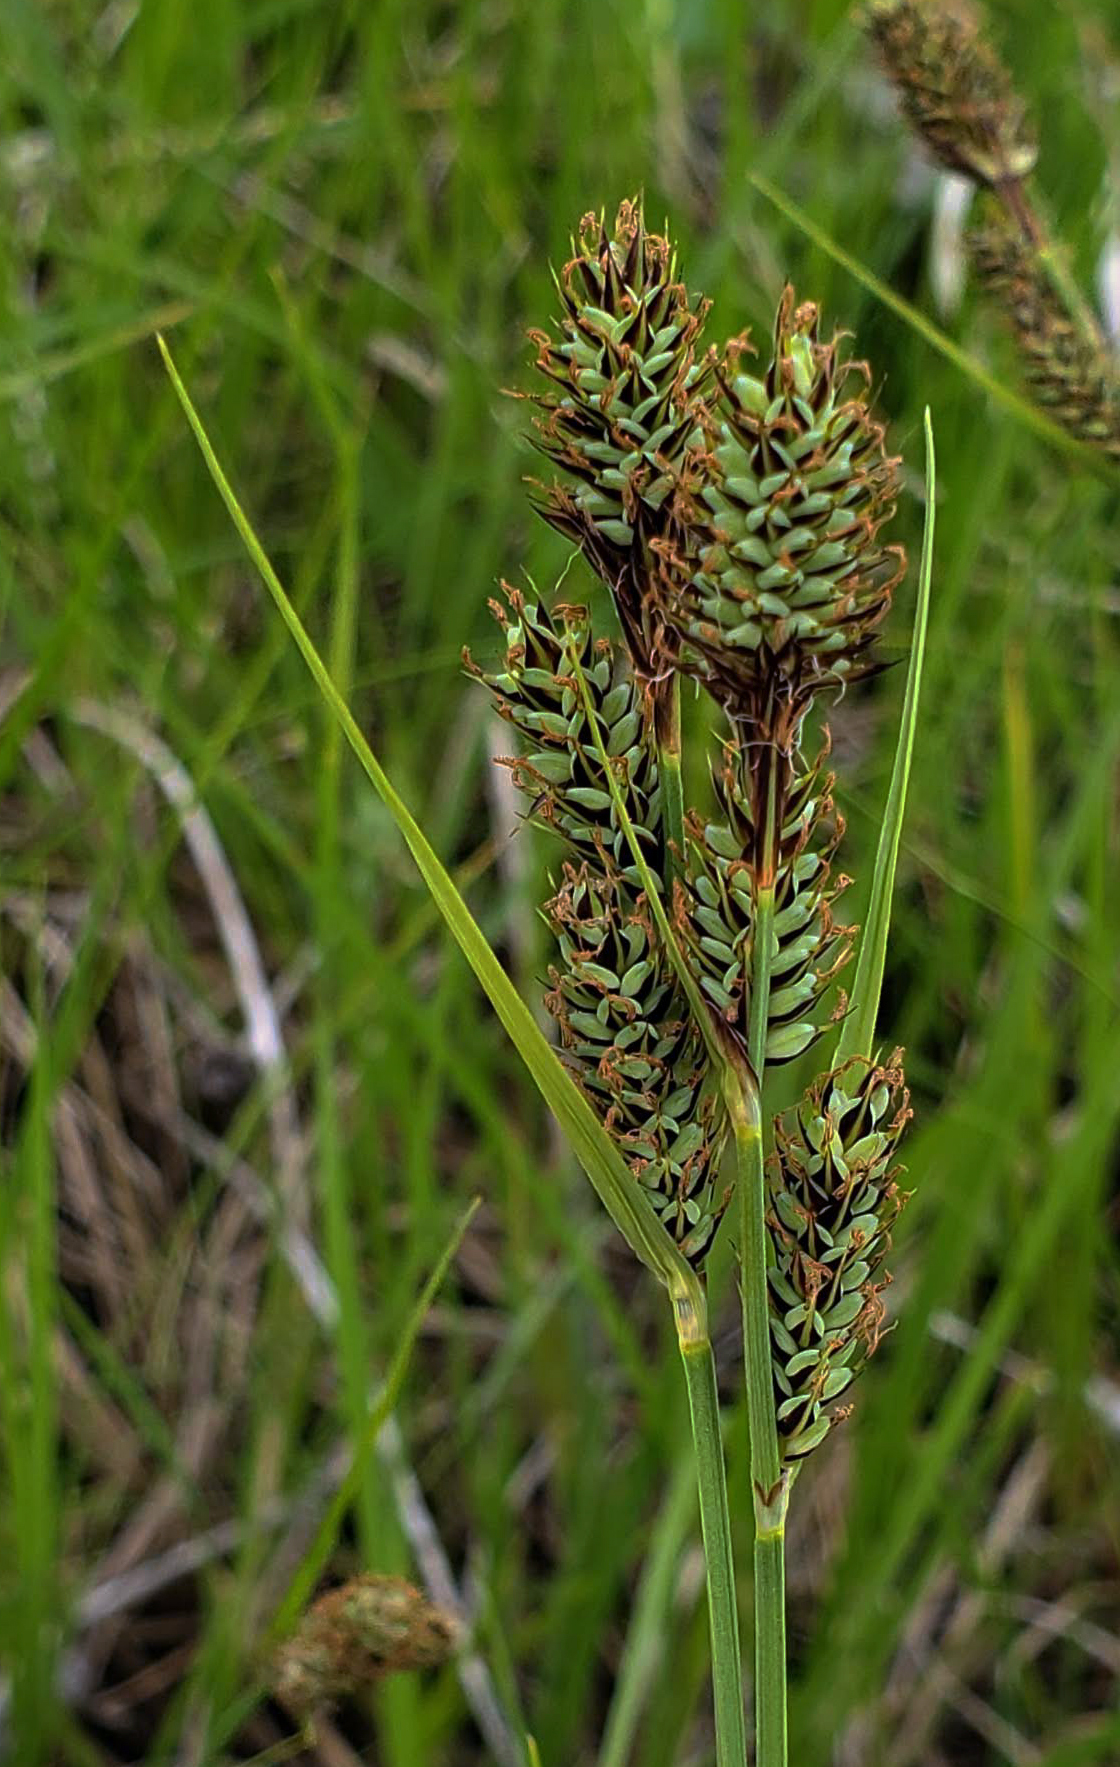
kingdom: Plantae
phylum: Tracheophyta
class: Liliopsida
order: Poales
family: Cyperaceae
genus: Carex
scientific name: Carex buxbaumii
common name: Club sedge
